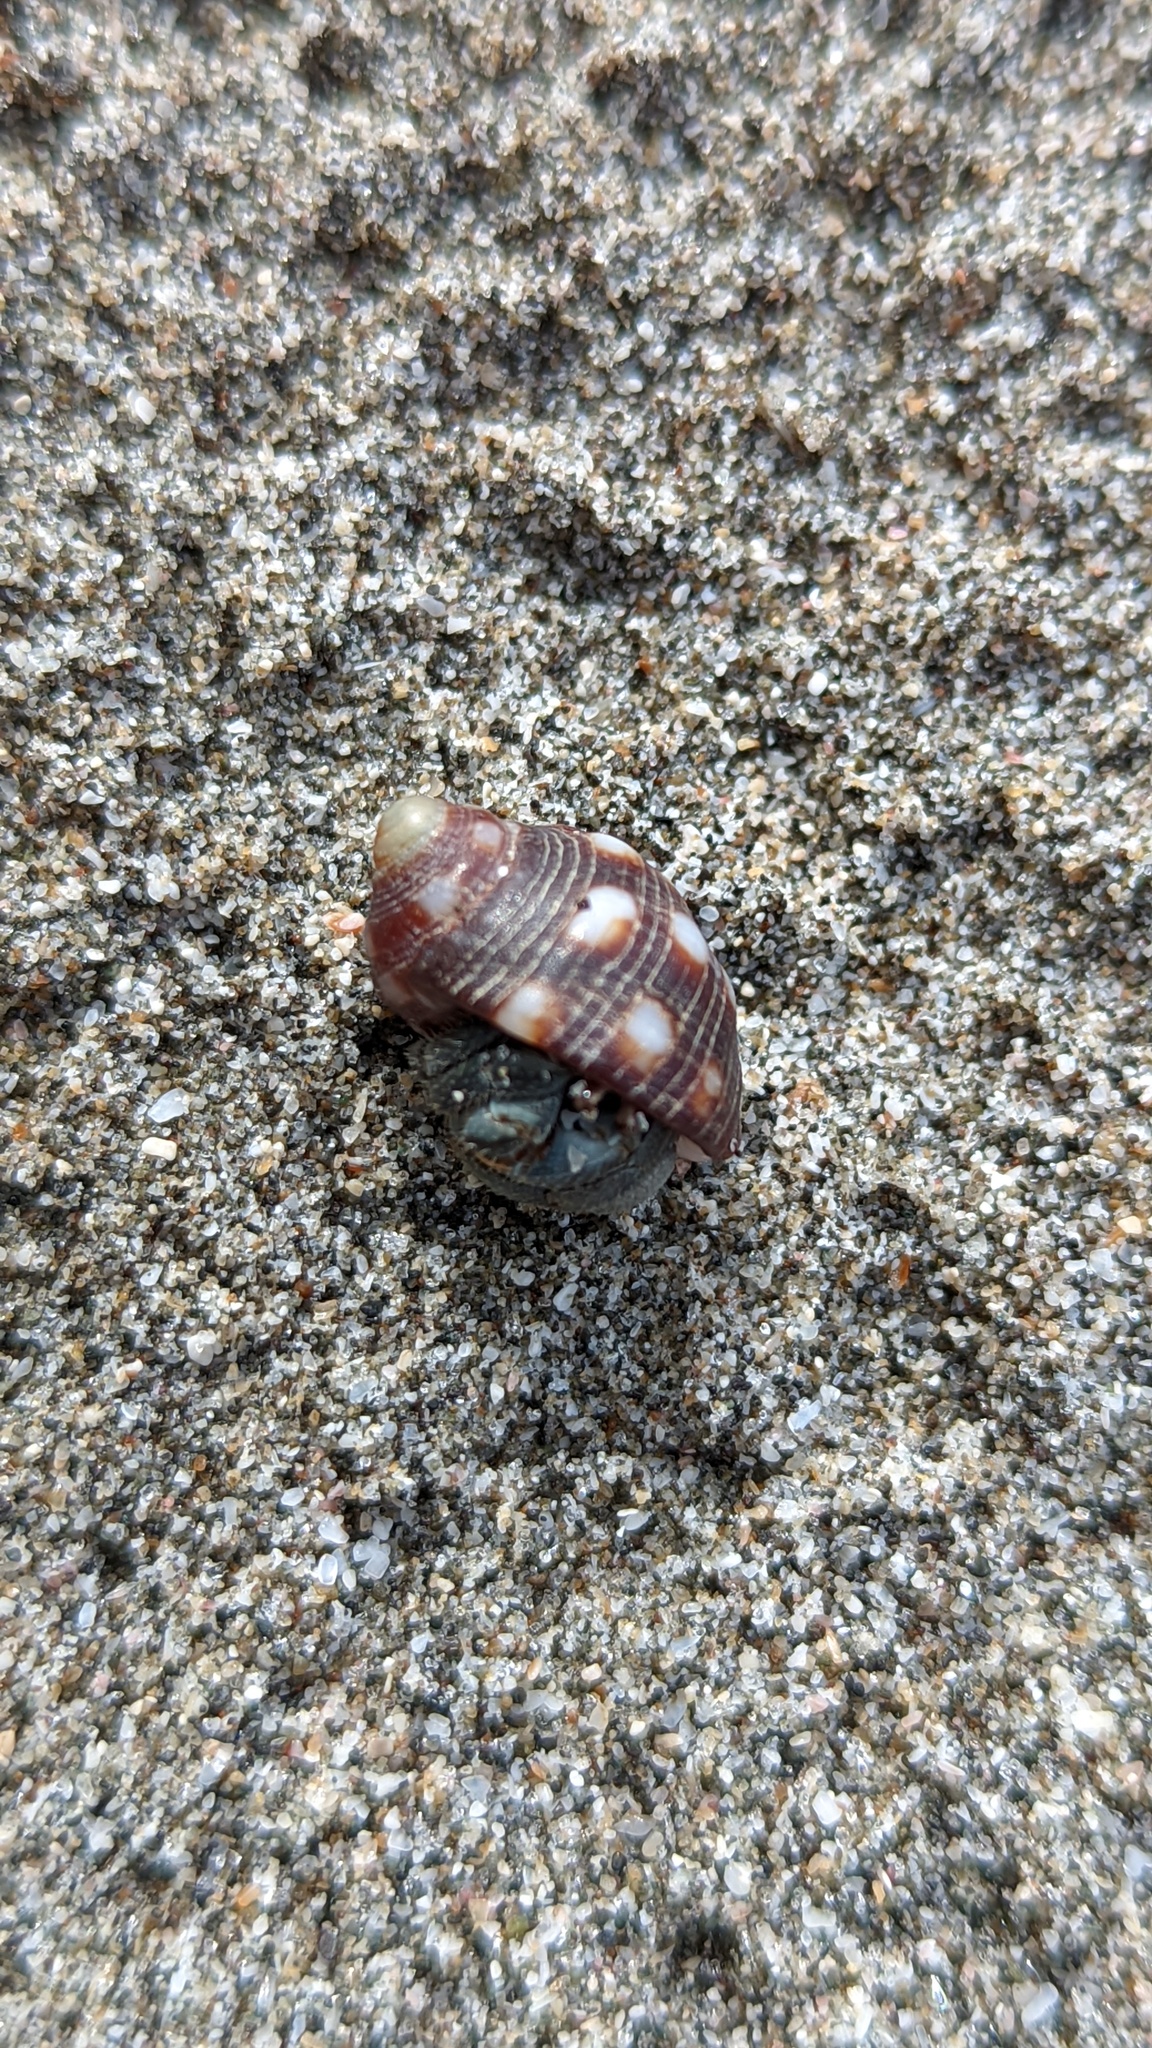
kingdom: Animalia
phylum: Mollusca
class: Gastropoda
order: Neogastropoda
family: Muricidae
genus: Acanthais
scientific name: Acanthais brevidentata
